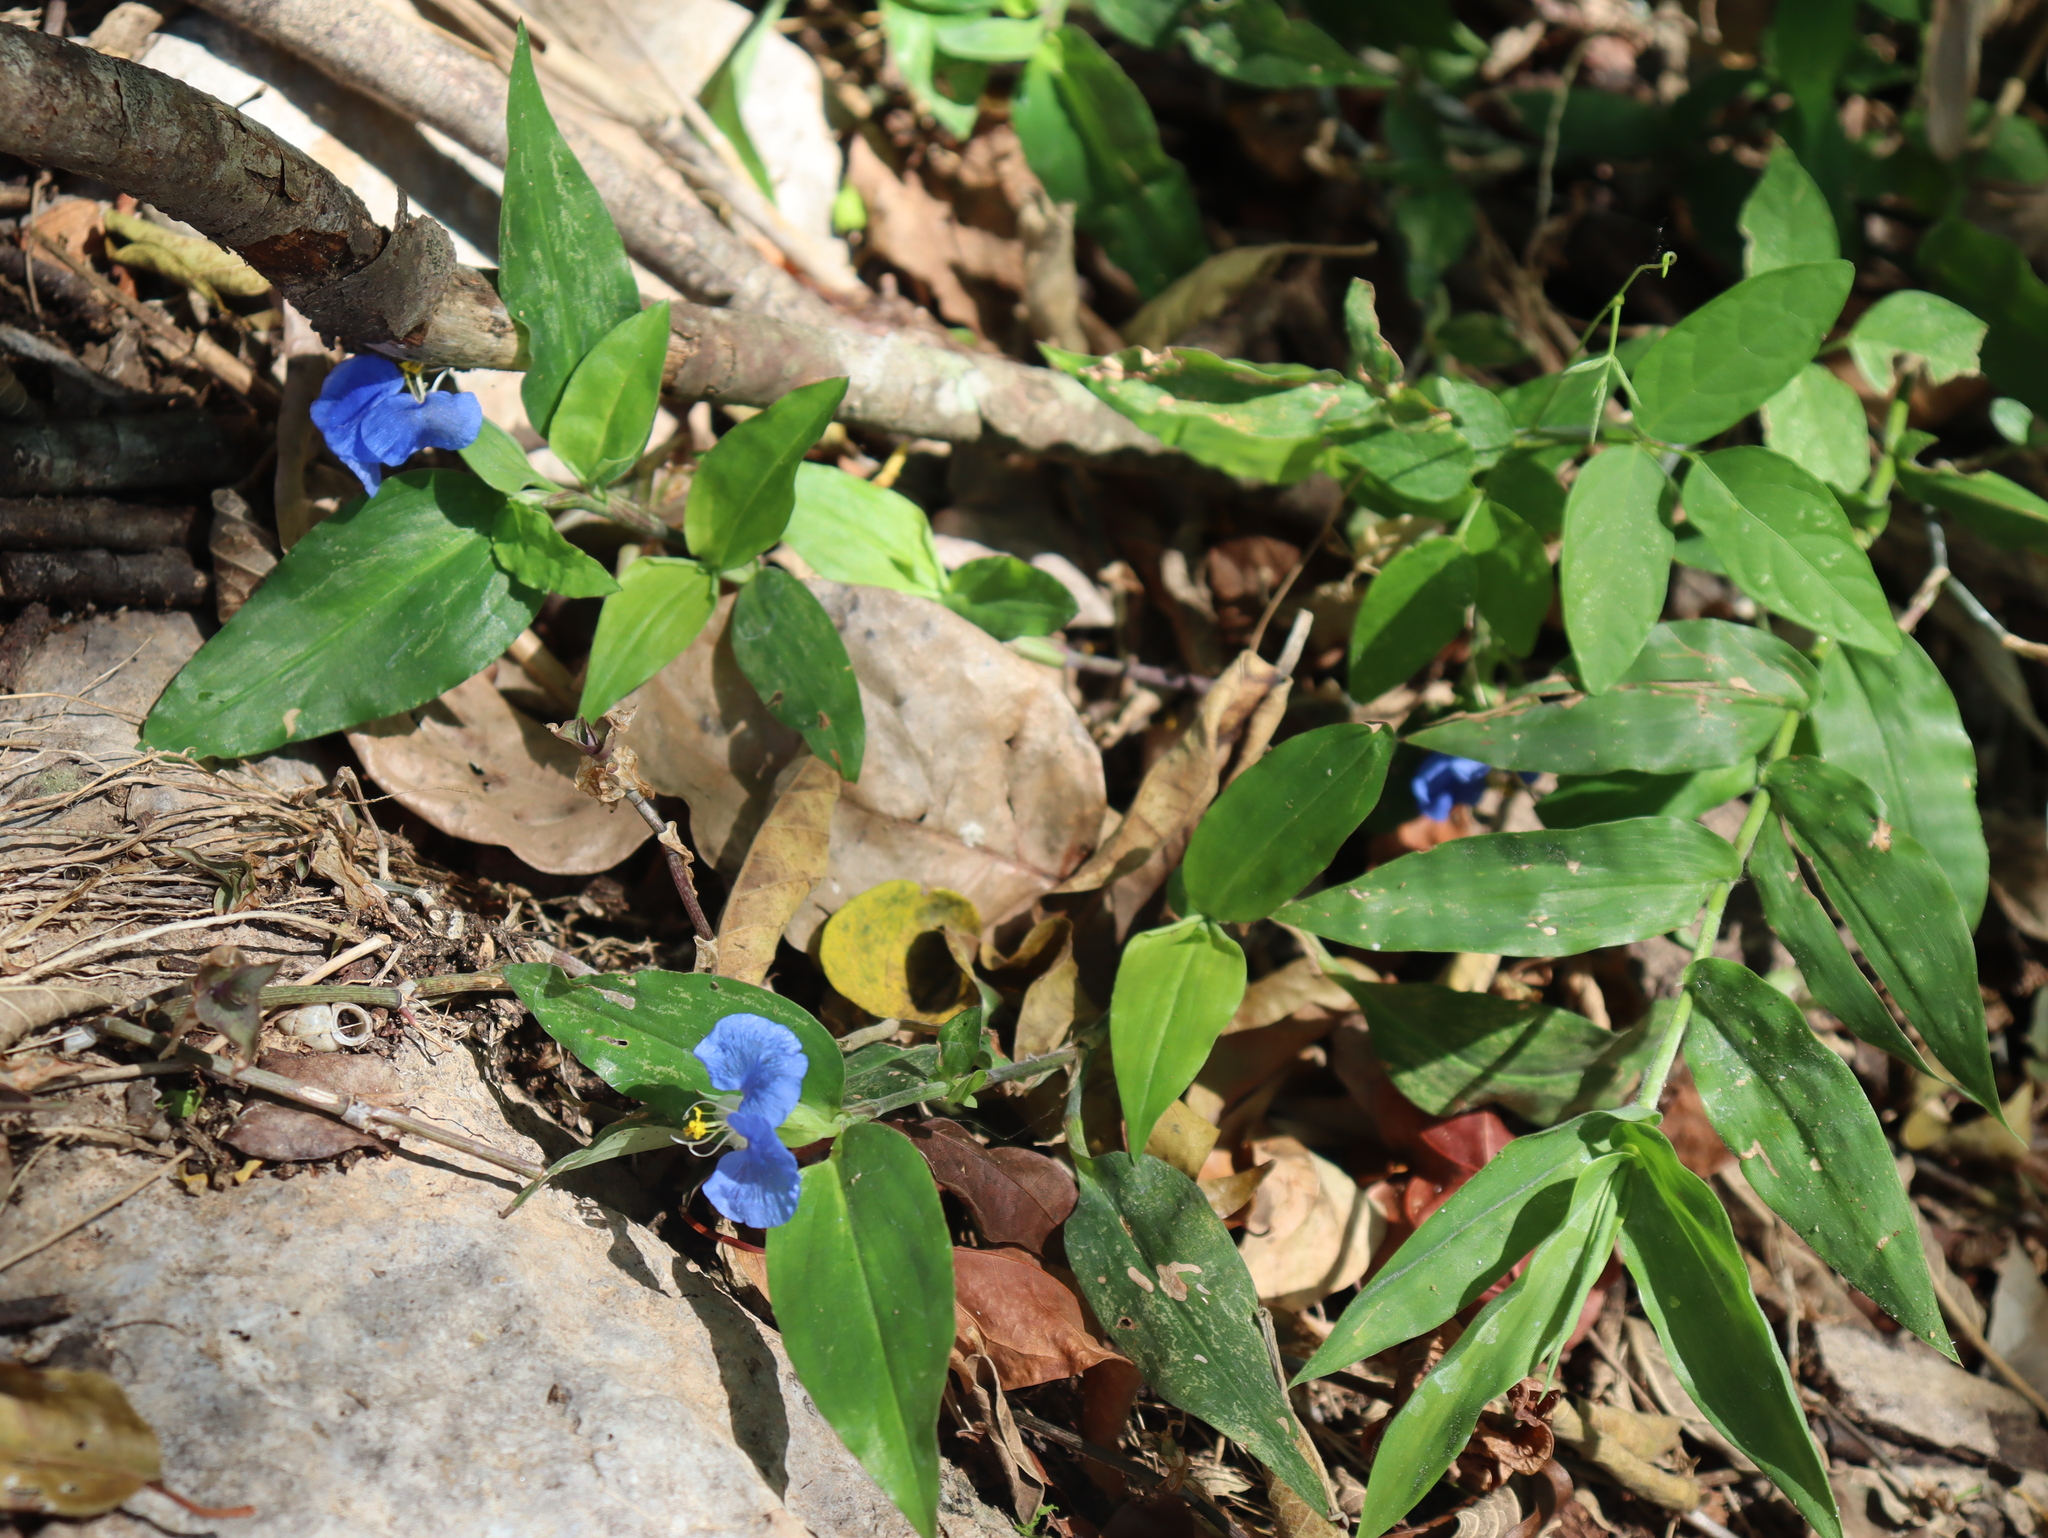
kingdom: Plantae
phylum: Tracheophyta
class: Liliopsida
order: Commelinales
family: Commelinaceae
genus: Commelina
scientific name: Commelina erecta
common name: Blousel blommetjie
